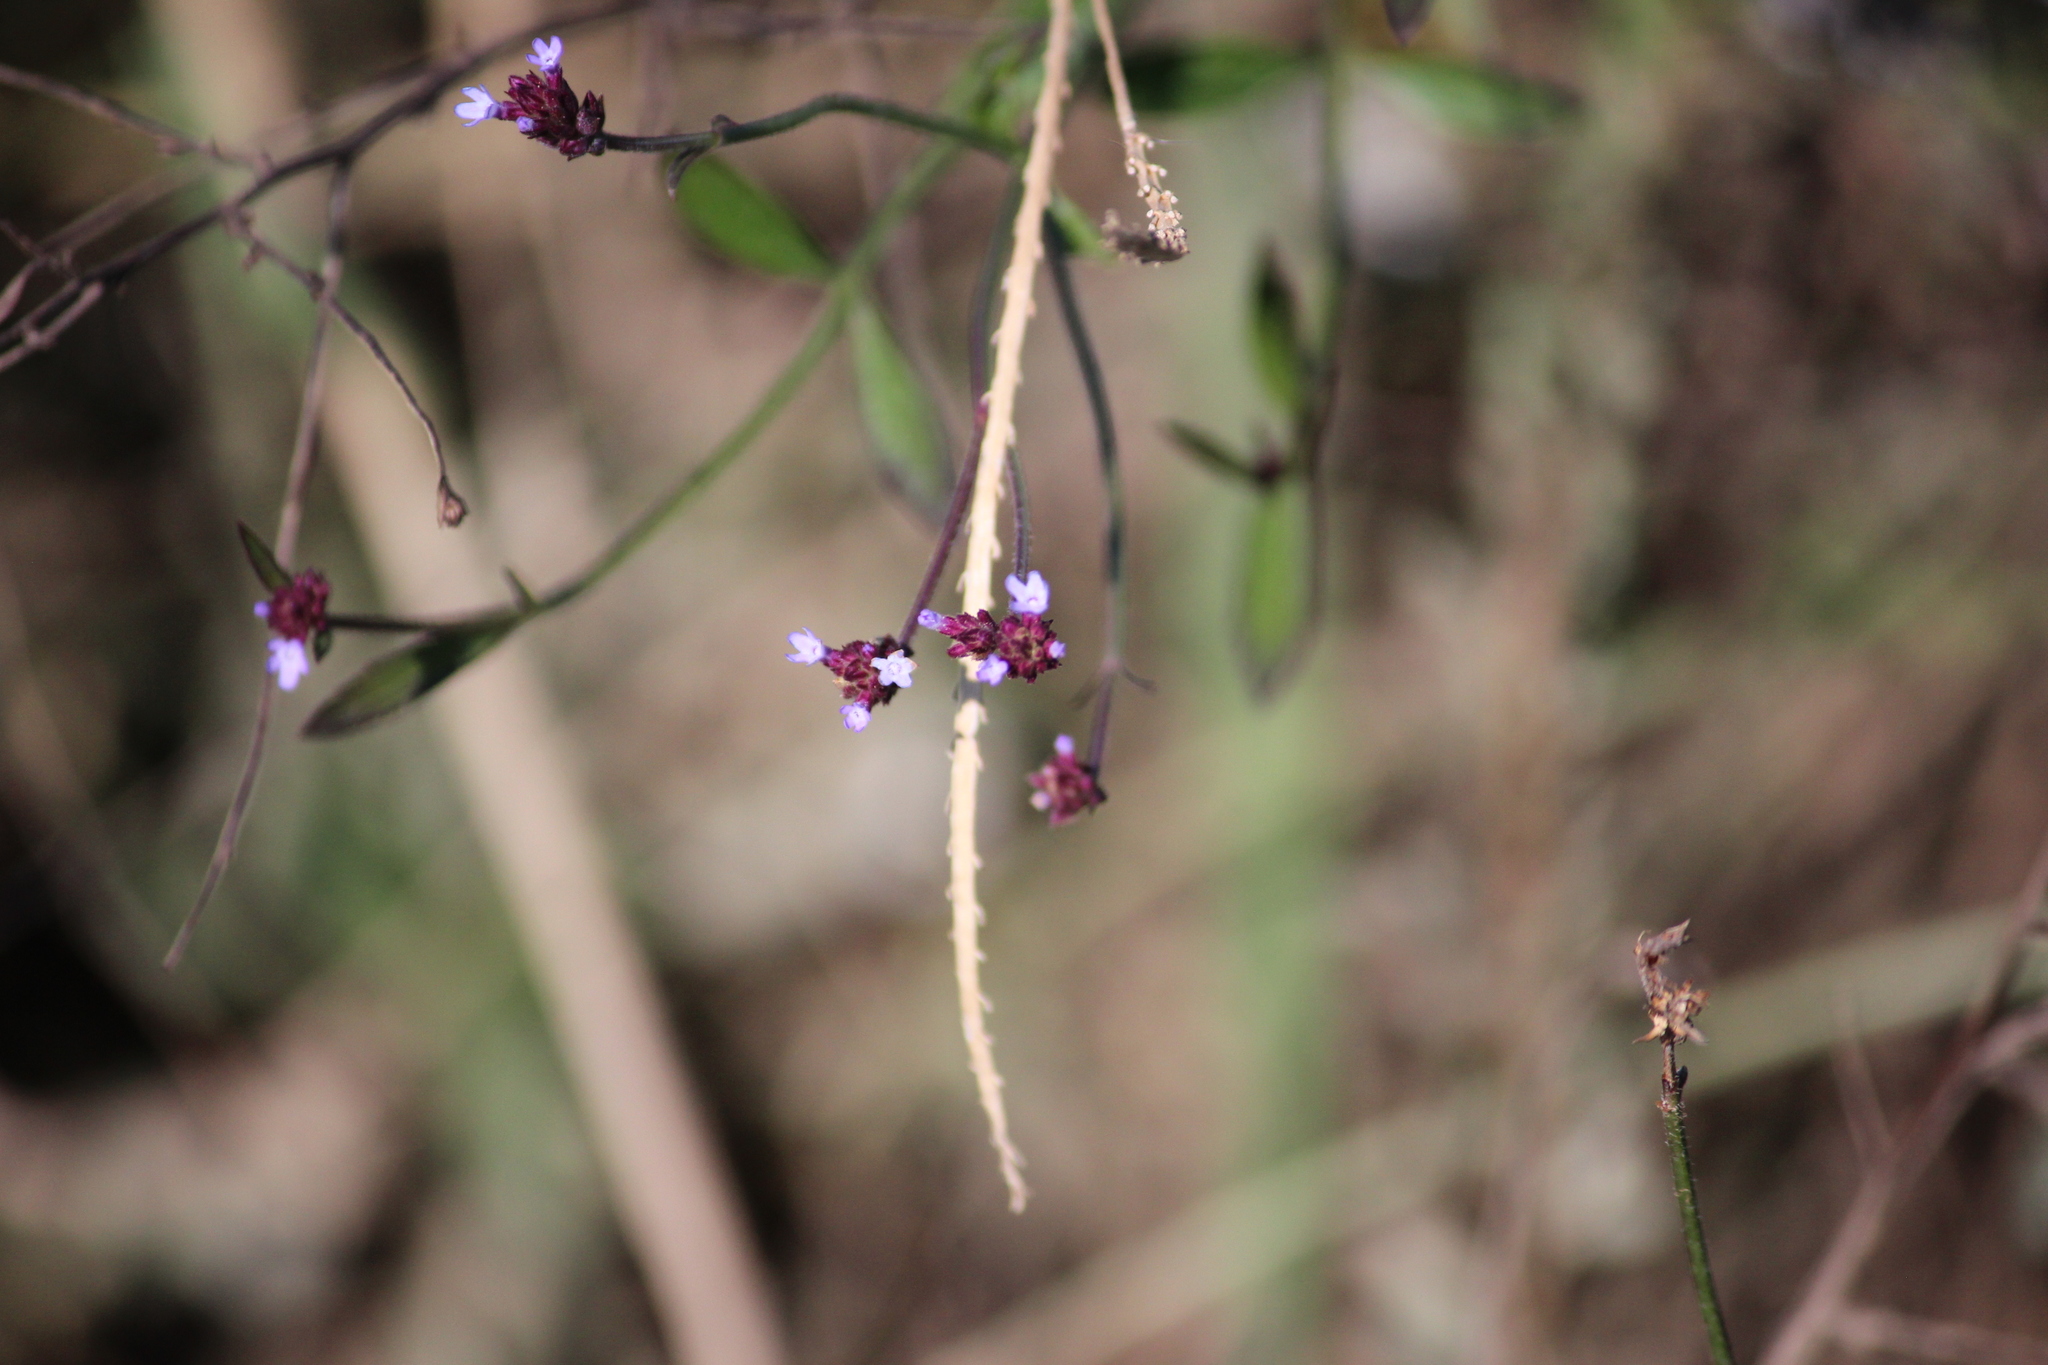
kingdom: Plantae
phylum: Tracheophyta
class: Magnoliopsida
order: Lamiales
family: Verbenaceae
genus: Verbena
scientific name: Verbena brasiliensis
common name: Brazilian vervain
